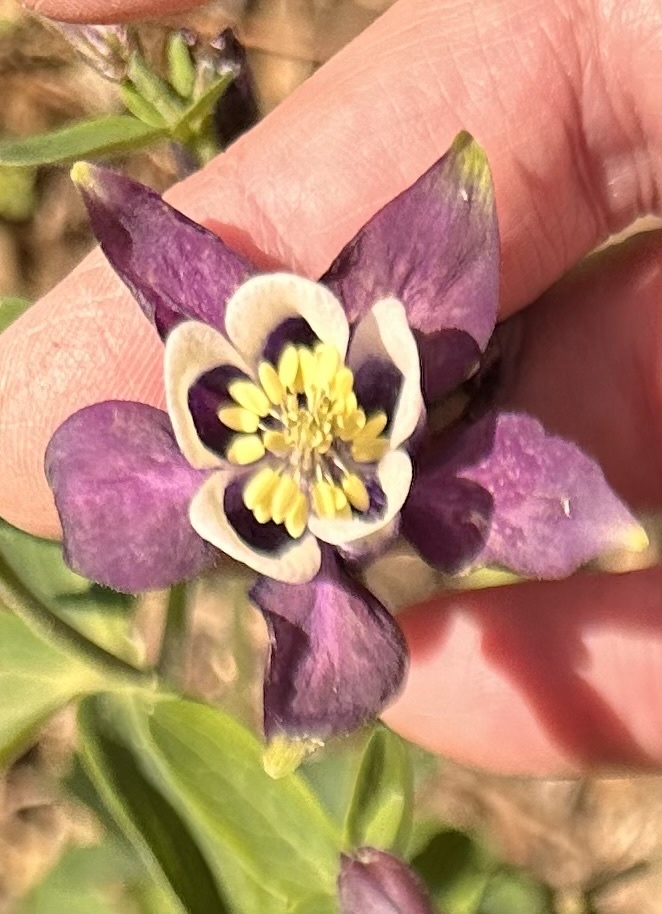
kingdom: Plantae
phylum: Tracheophyta
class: Magnoliopsida
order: Ranunculales
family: Ranunculaceae
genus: Aquilegia
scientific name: Aquilegia canadensis
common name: American columbine
